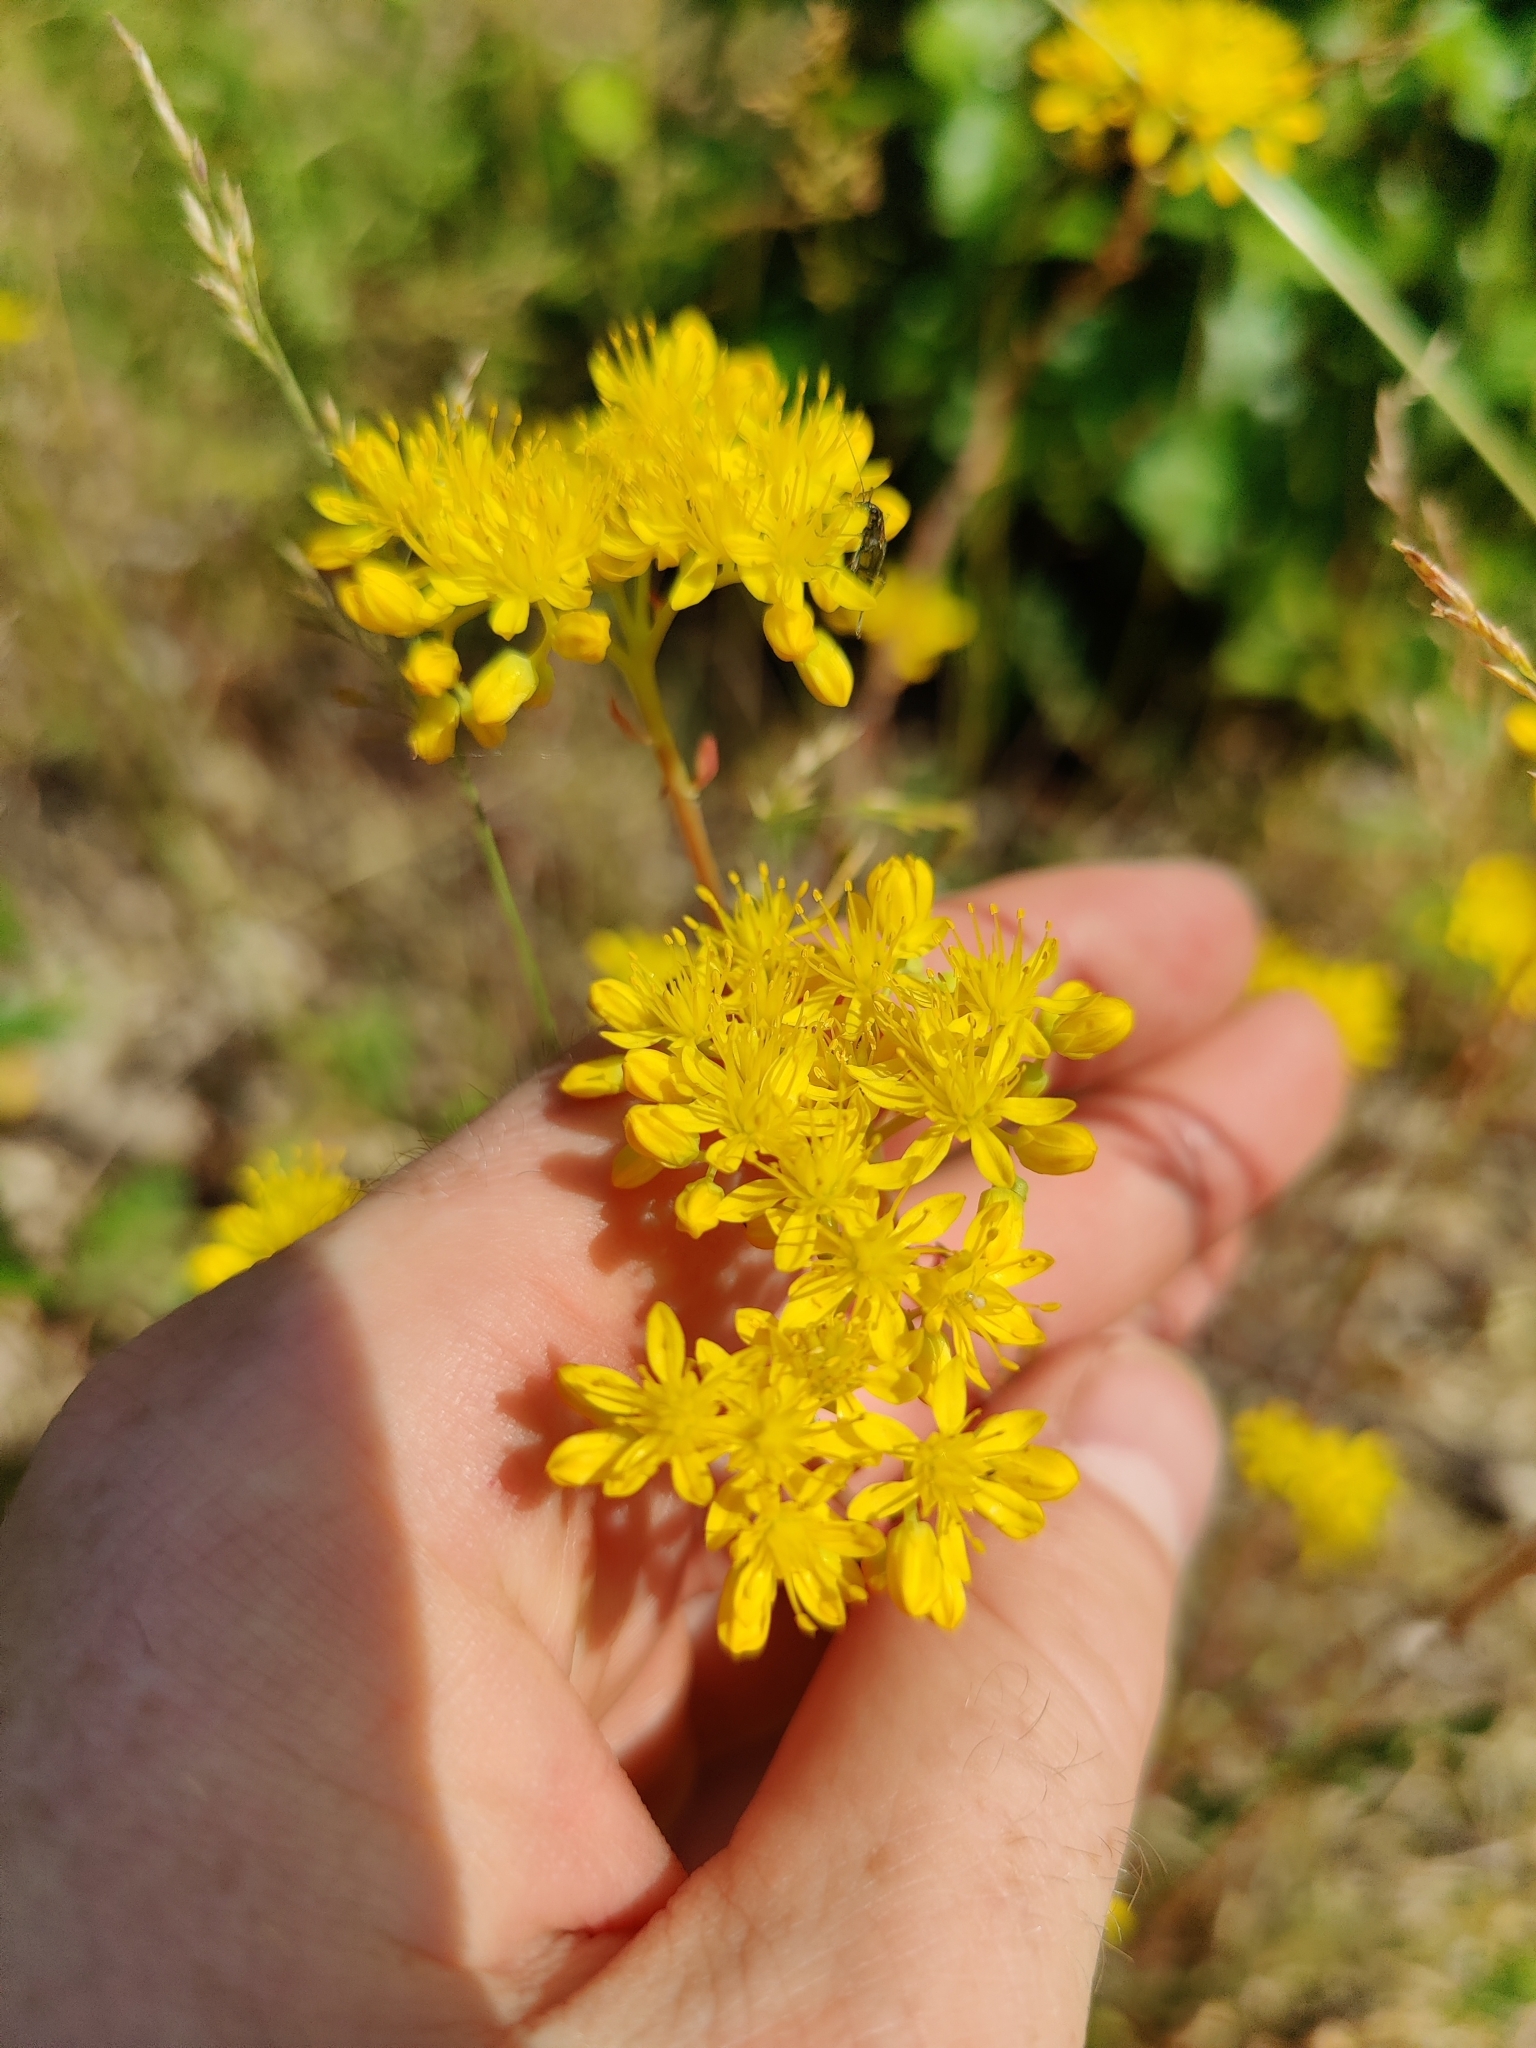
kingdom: Plantae
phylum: Tracheophyta
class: Magnoliopsida
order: Saxifragales
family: Crassulaceae
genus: Petrosedum
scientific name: Petrosedum forsterianum
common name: Forster's stonecrop
